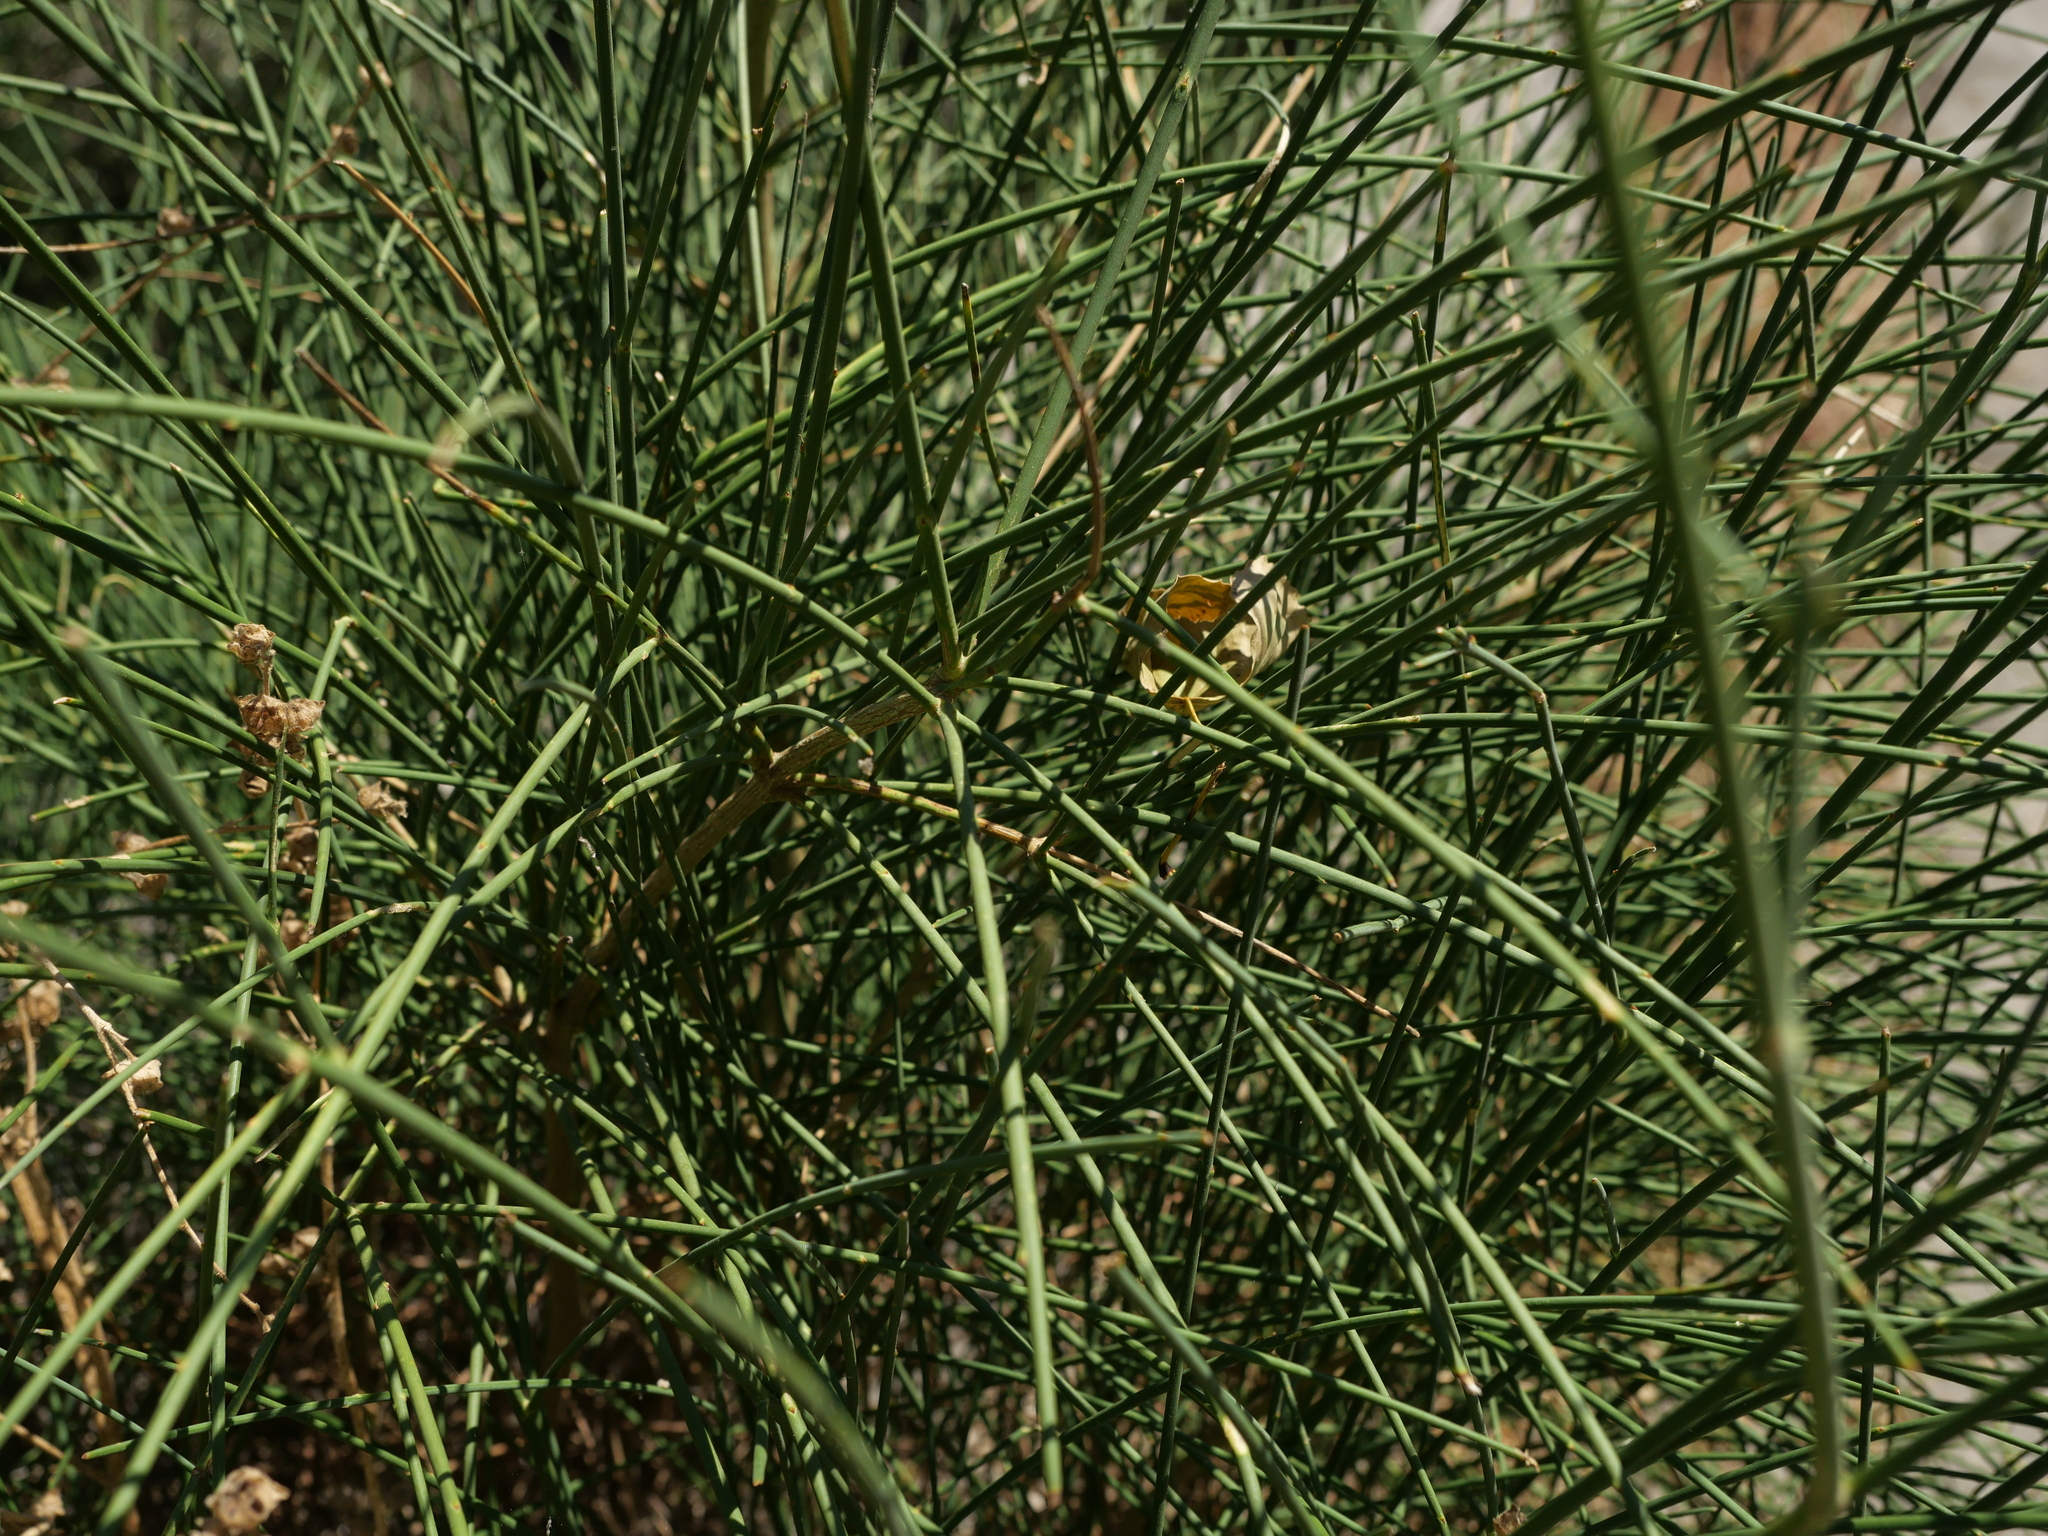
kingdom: Plantae
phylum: Tracheophyta
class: Magnoliopsida
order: Fabales
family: Fabaceae
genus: Spartium
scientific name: Spartium junceum
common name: Spanish broom
